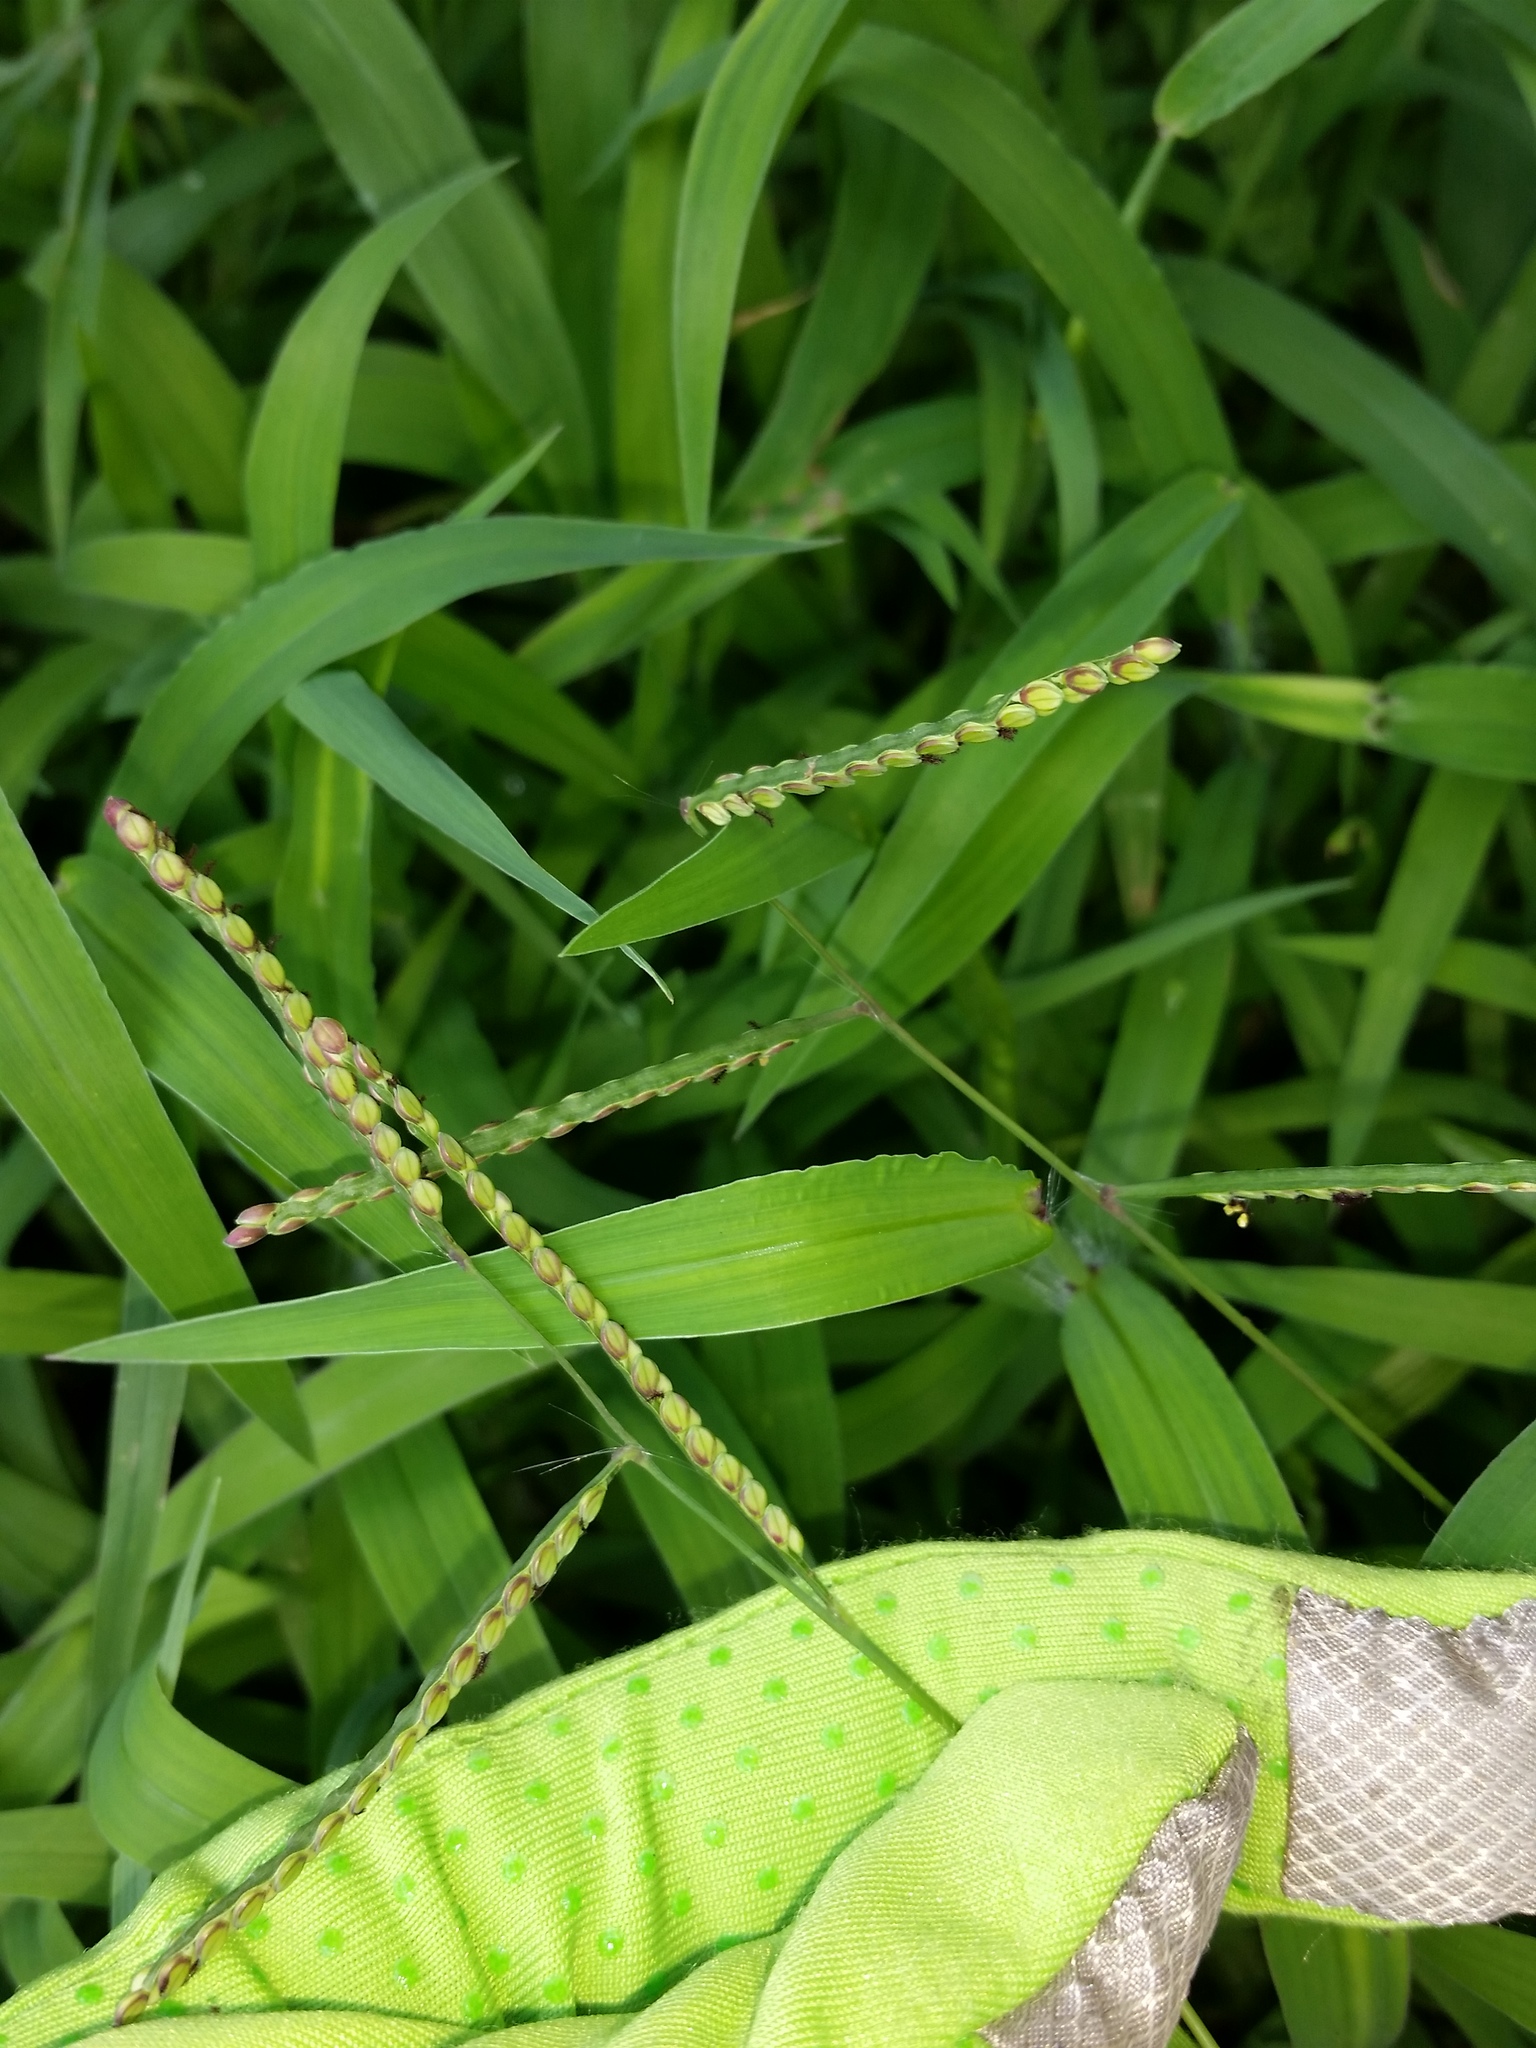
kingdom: Plantae
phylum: Tracheophyta
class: Liliopsida
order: Poales
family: Poaceae
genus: Paspalum
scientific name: Paspalum laeve
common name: Field paspalum
